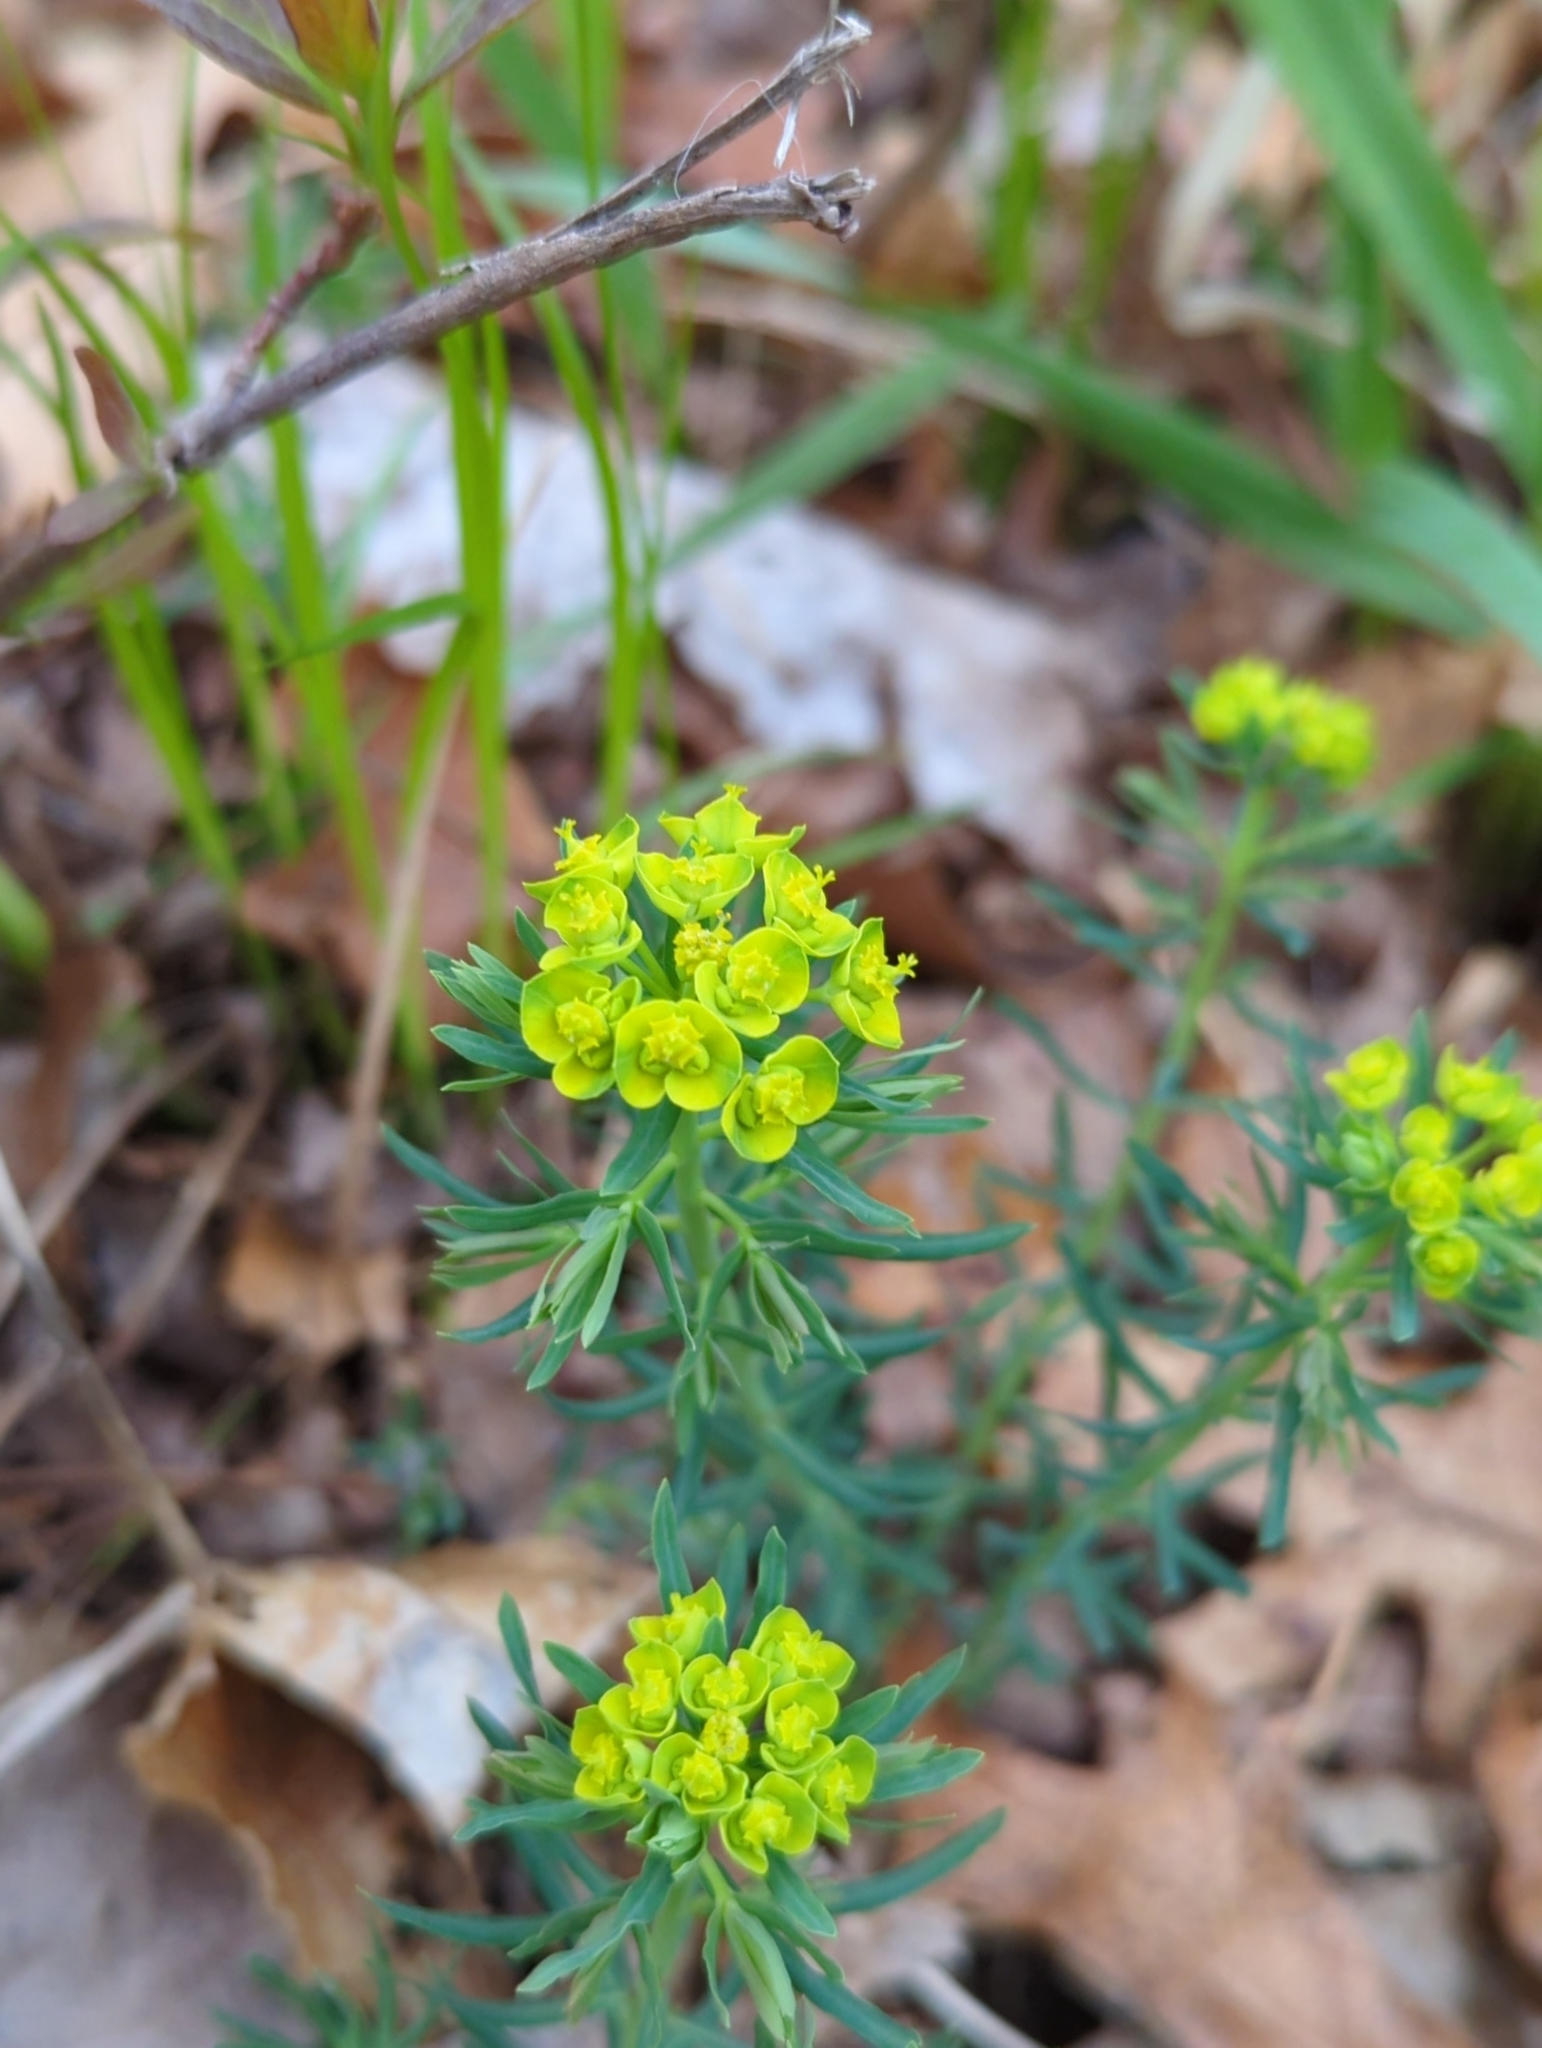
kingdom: Plantae
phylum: Tracheophyta
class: Magnoliopsida
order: Malpighiales
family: Euphorbiaceae
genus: Euphorbia
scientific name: Euphorbia cyparissias
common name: Cypress spurge
